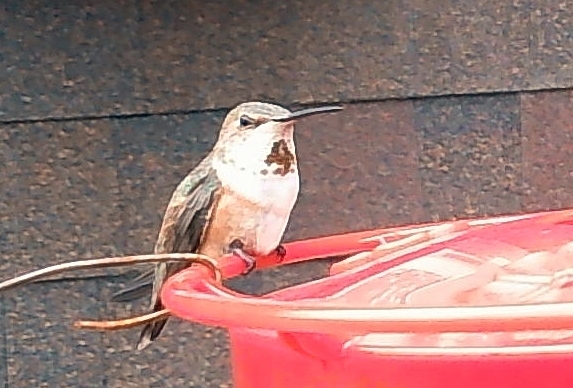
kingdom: Animalia
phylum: Chordata
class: Aves
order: Apodiformes
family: Trochilidae
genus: Selasphorus
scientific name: Selasphorus rufus
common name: Rufous hummingbird
